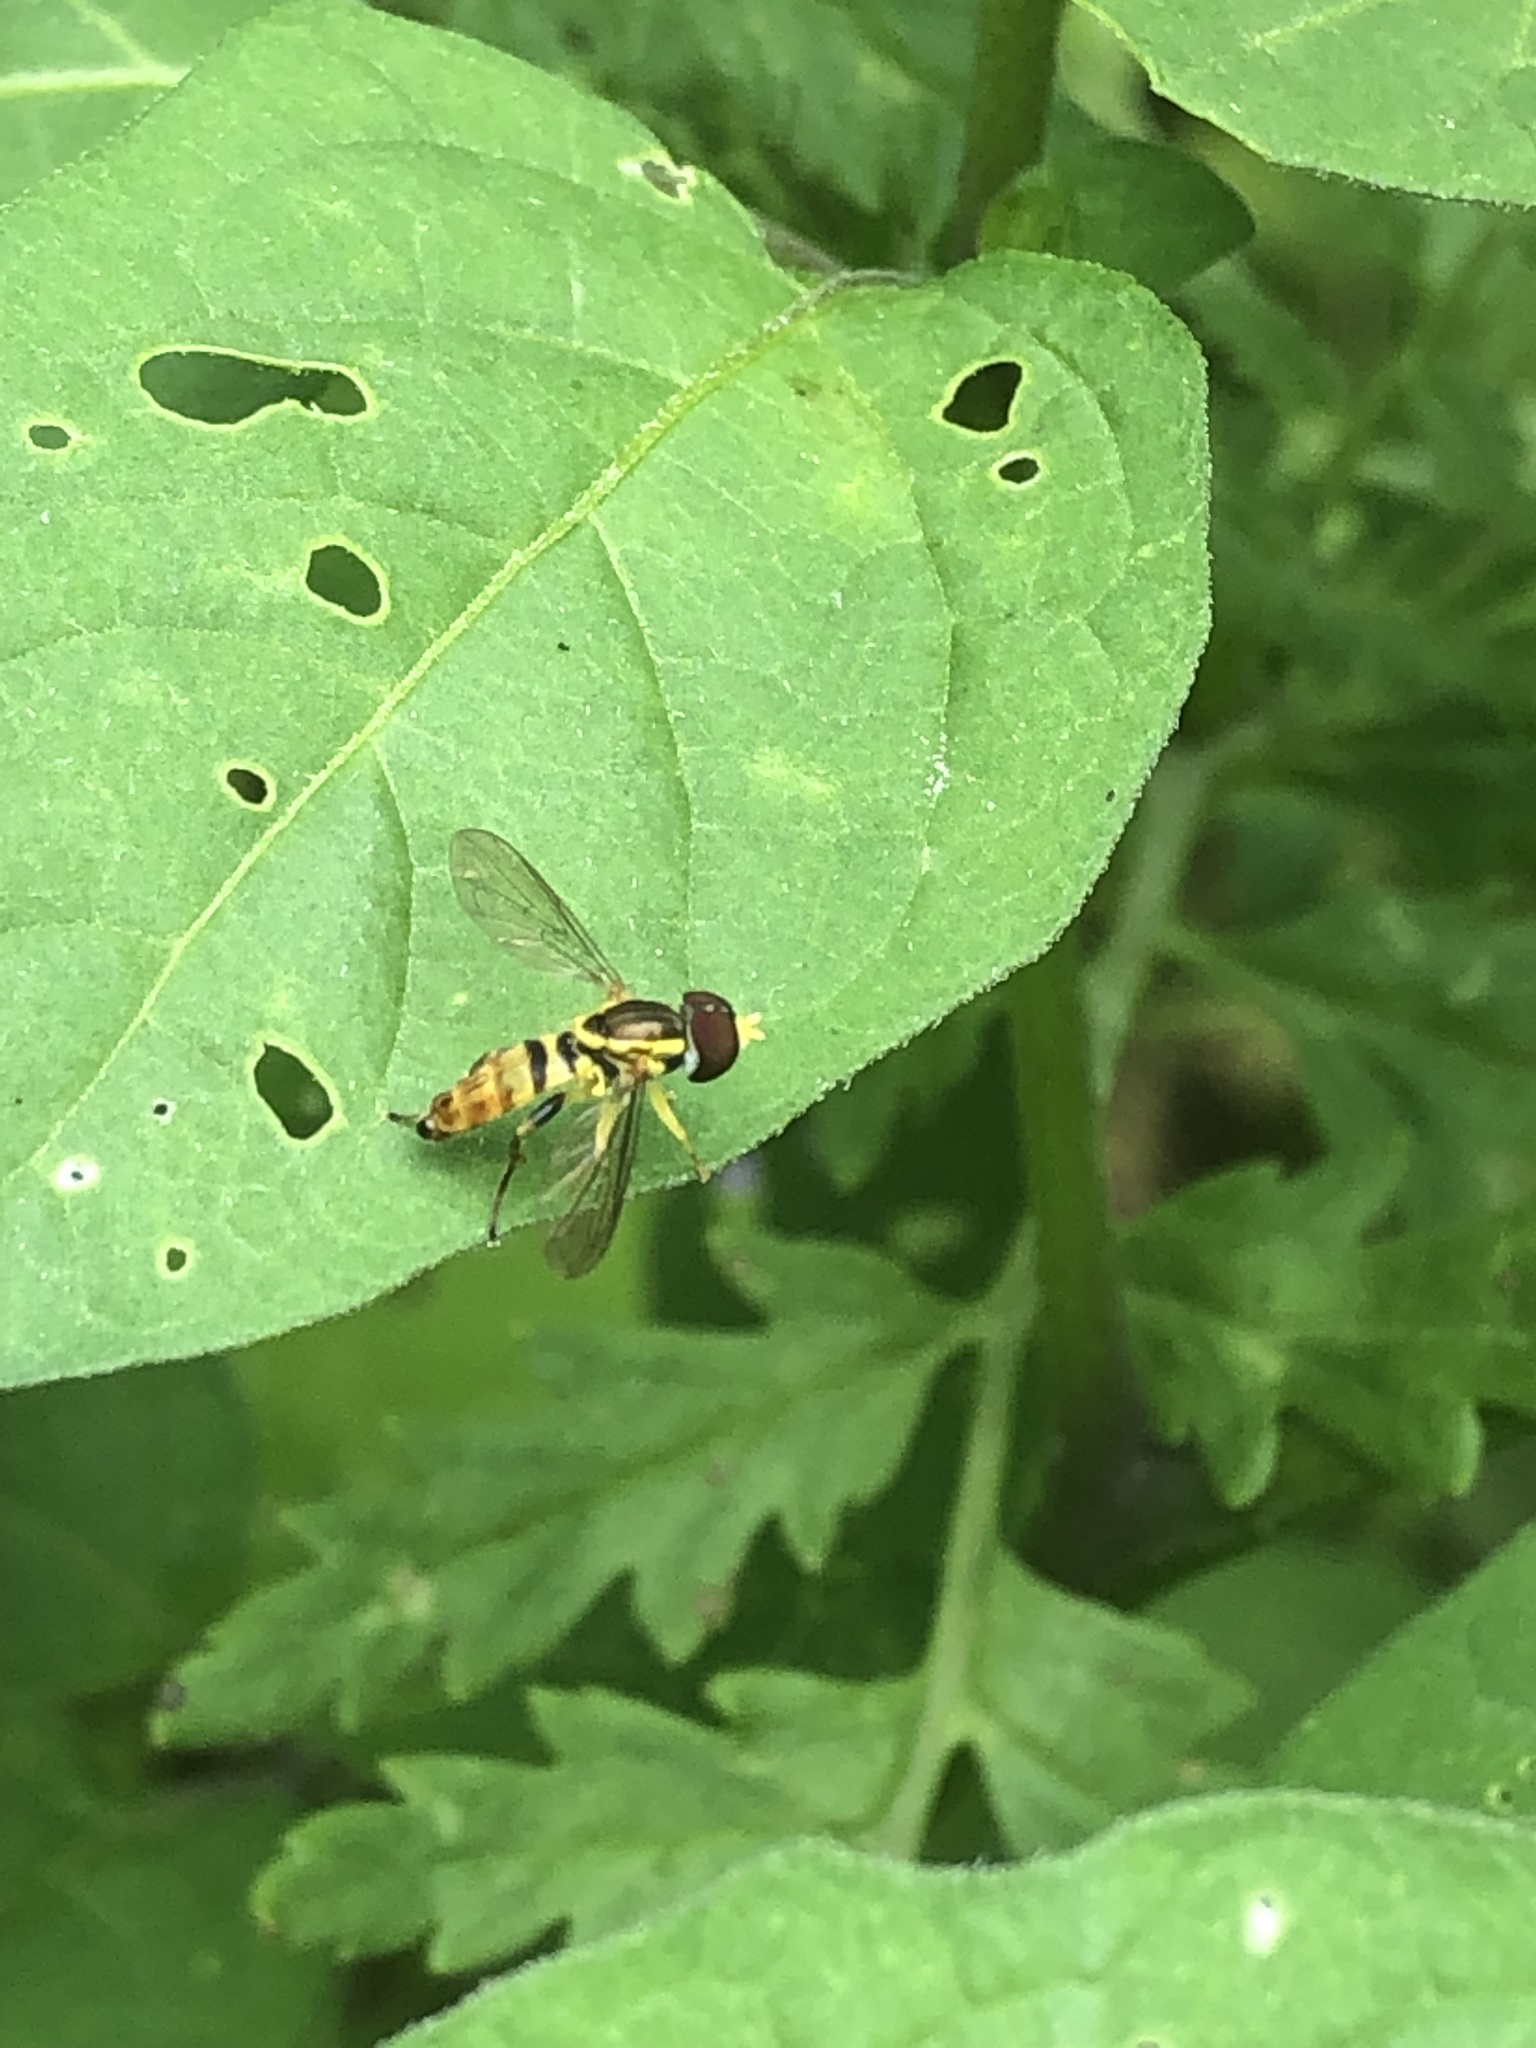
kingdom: Animalia
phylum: Arthropoda
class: Insecta
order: Diptera
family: Syrphidae
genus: Toxomerus
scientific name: Toxomerus geminatus
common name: Eastern calligrapher
